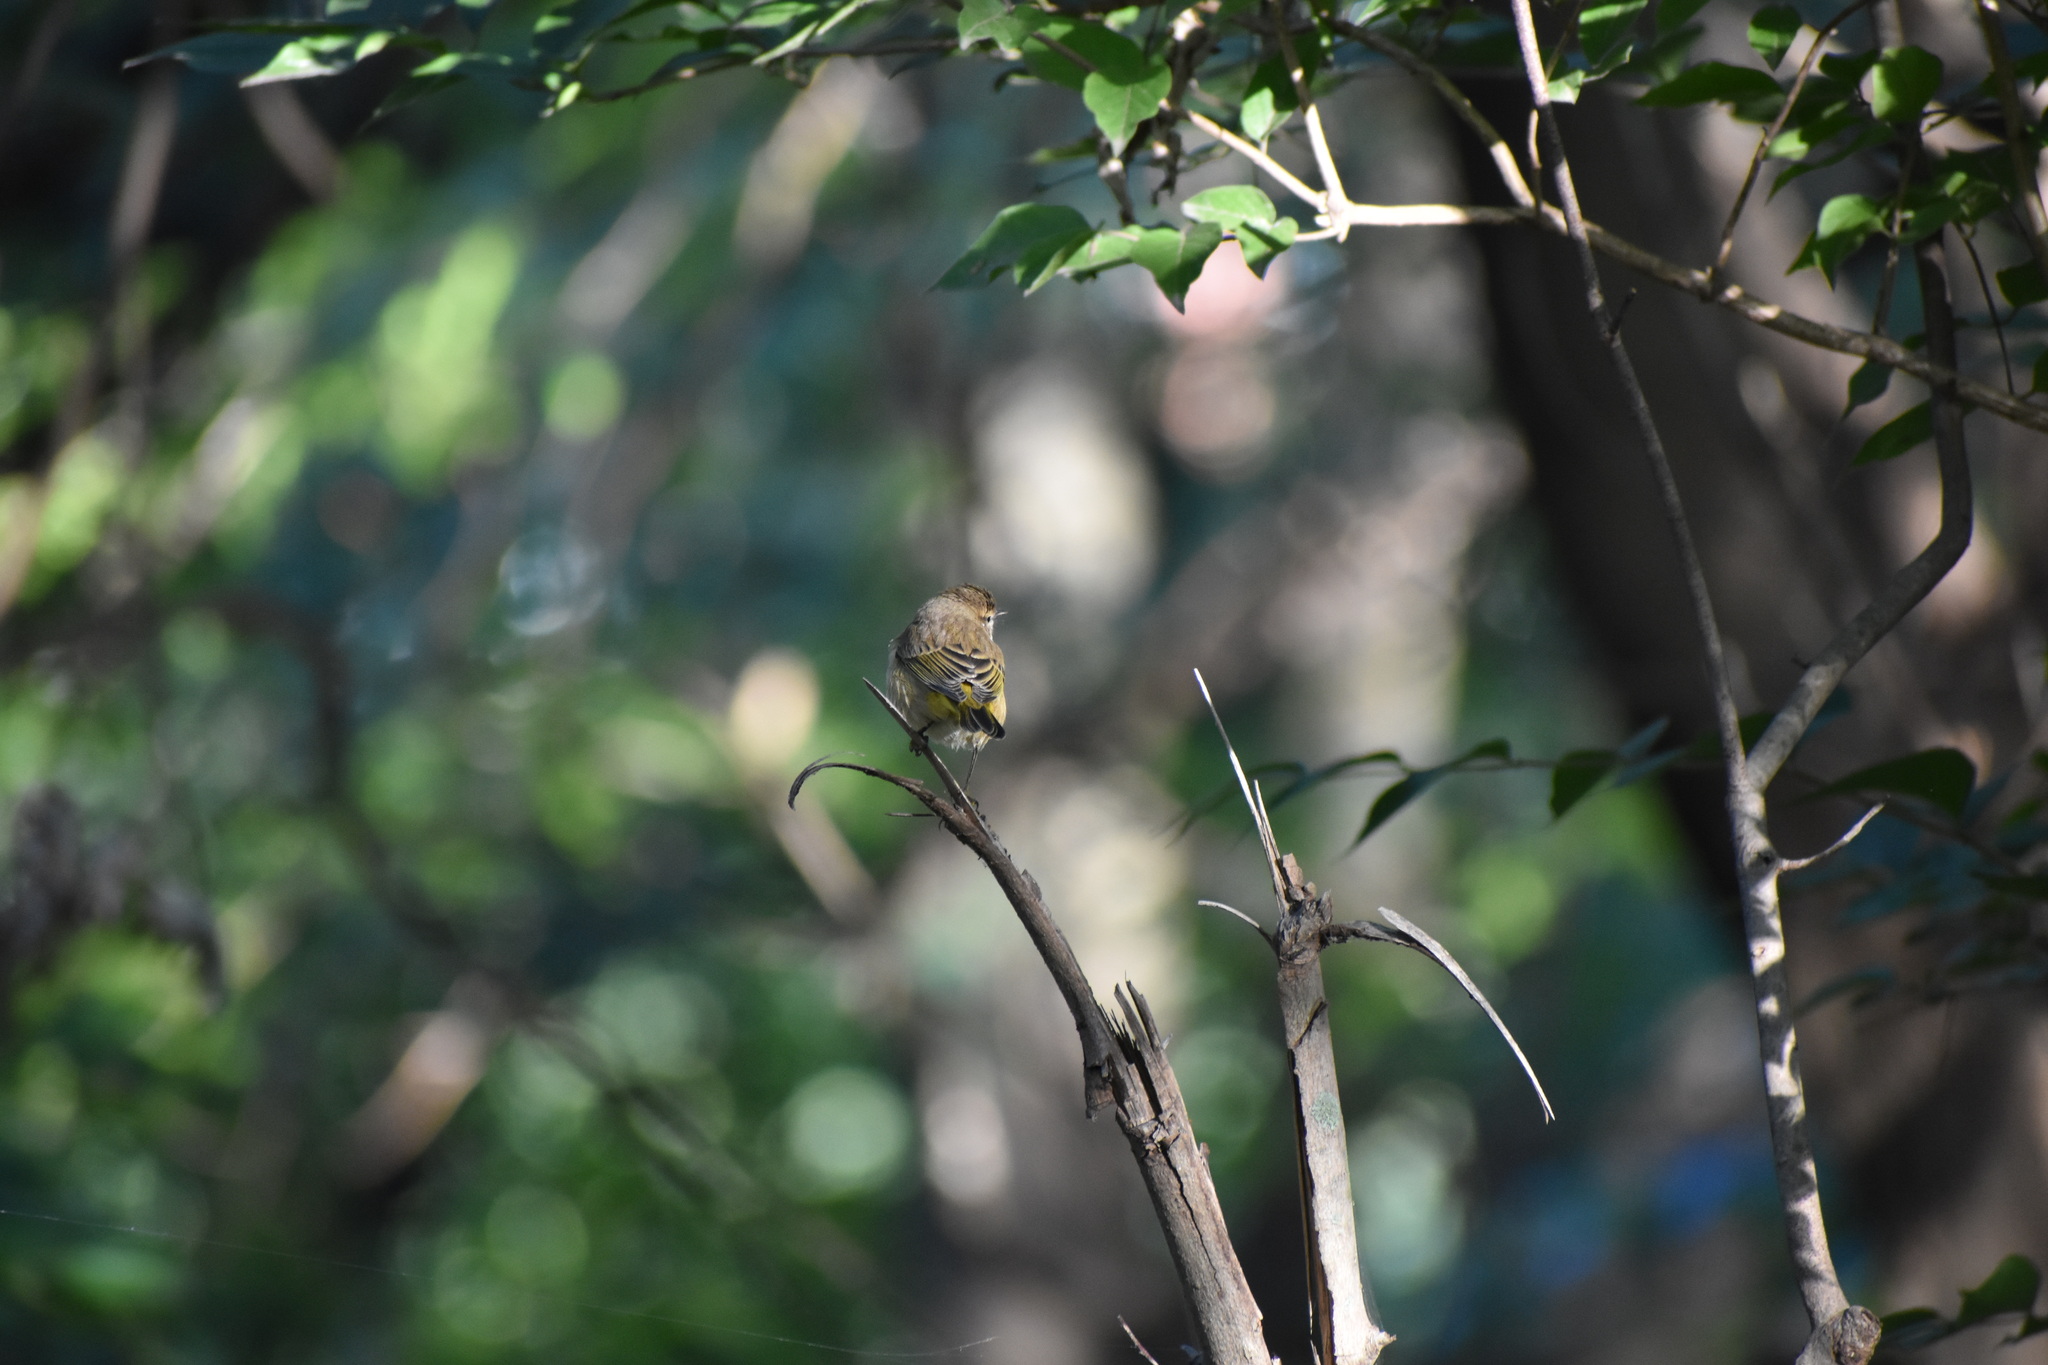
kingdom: Animalia
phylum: Chordata
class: Aves
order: Passeriformes
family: Parulidae
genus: Setophaga
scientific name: Setophaga palmarum
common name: Palm warbler
